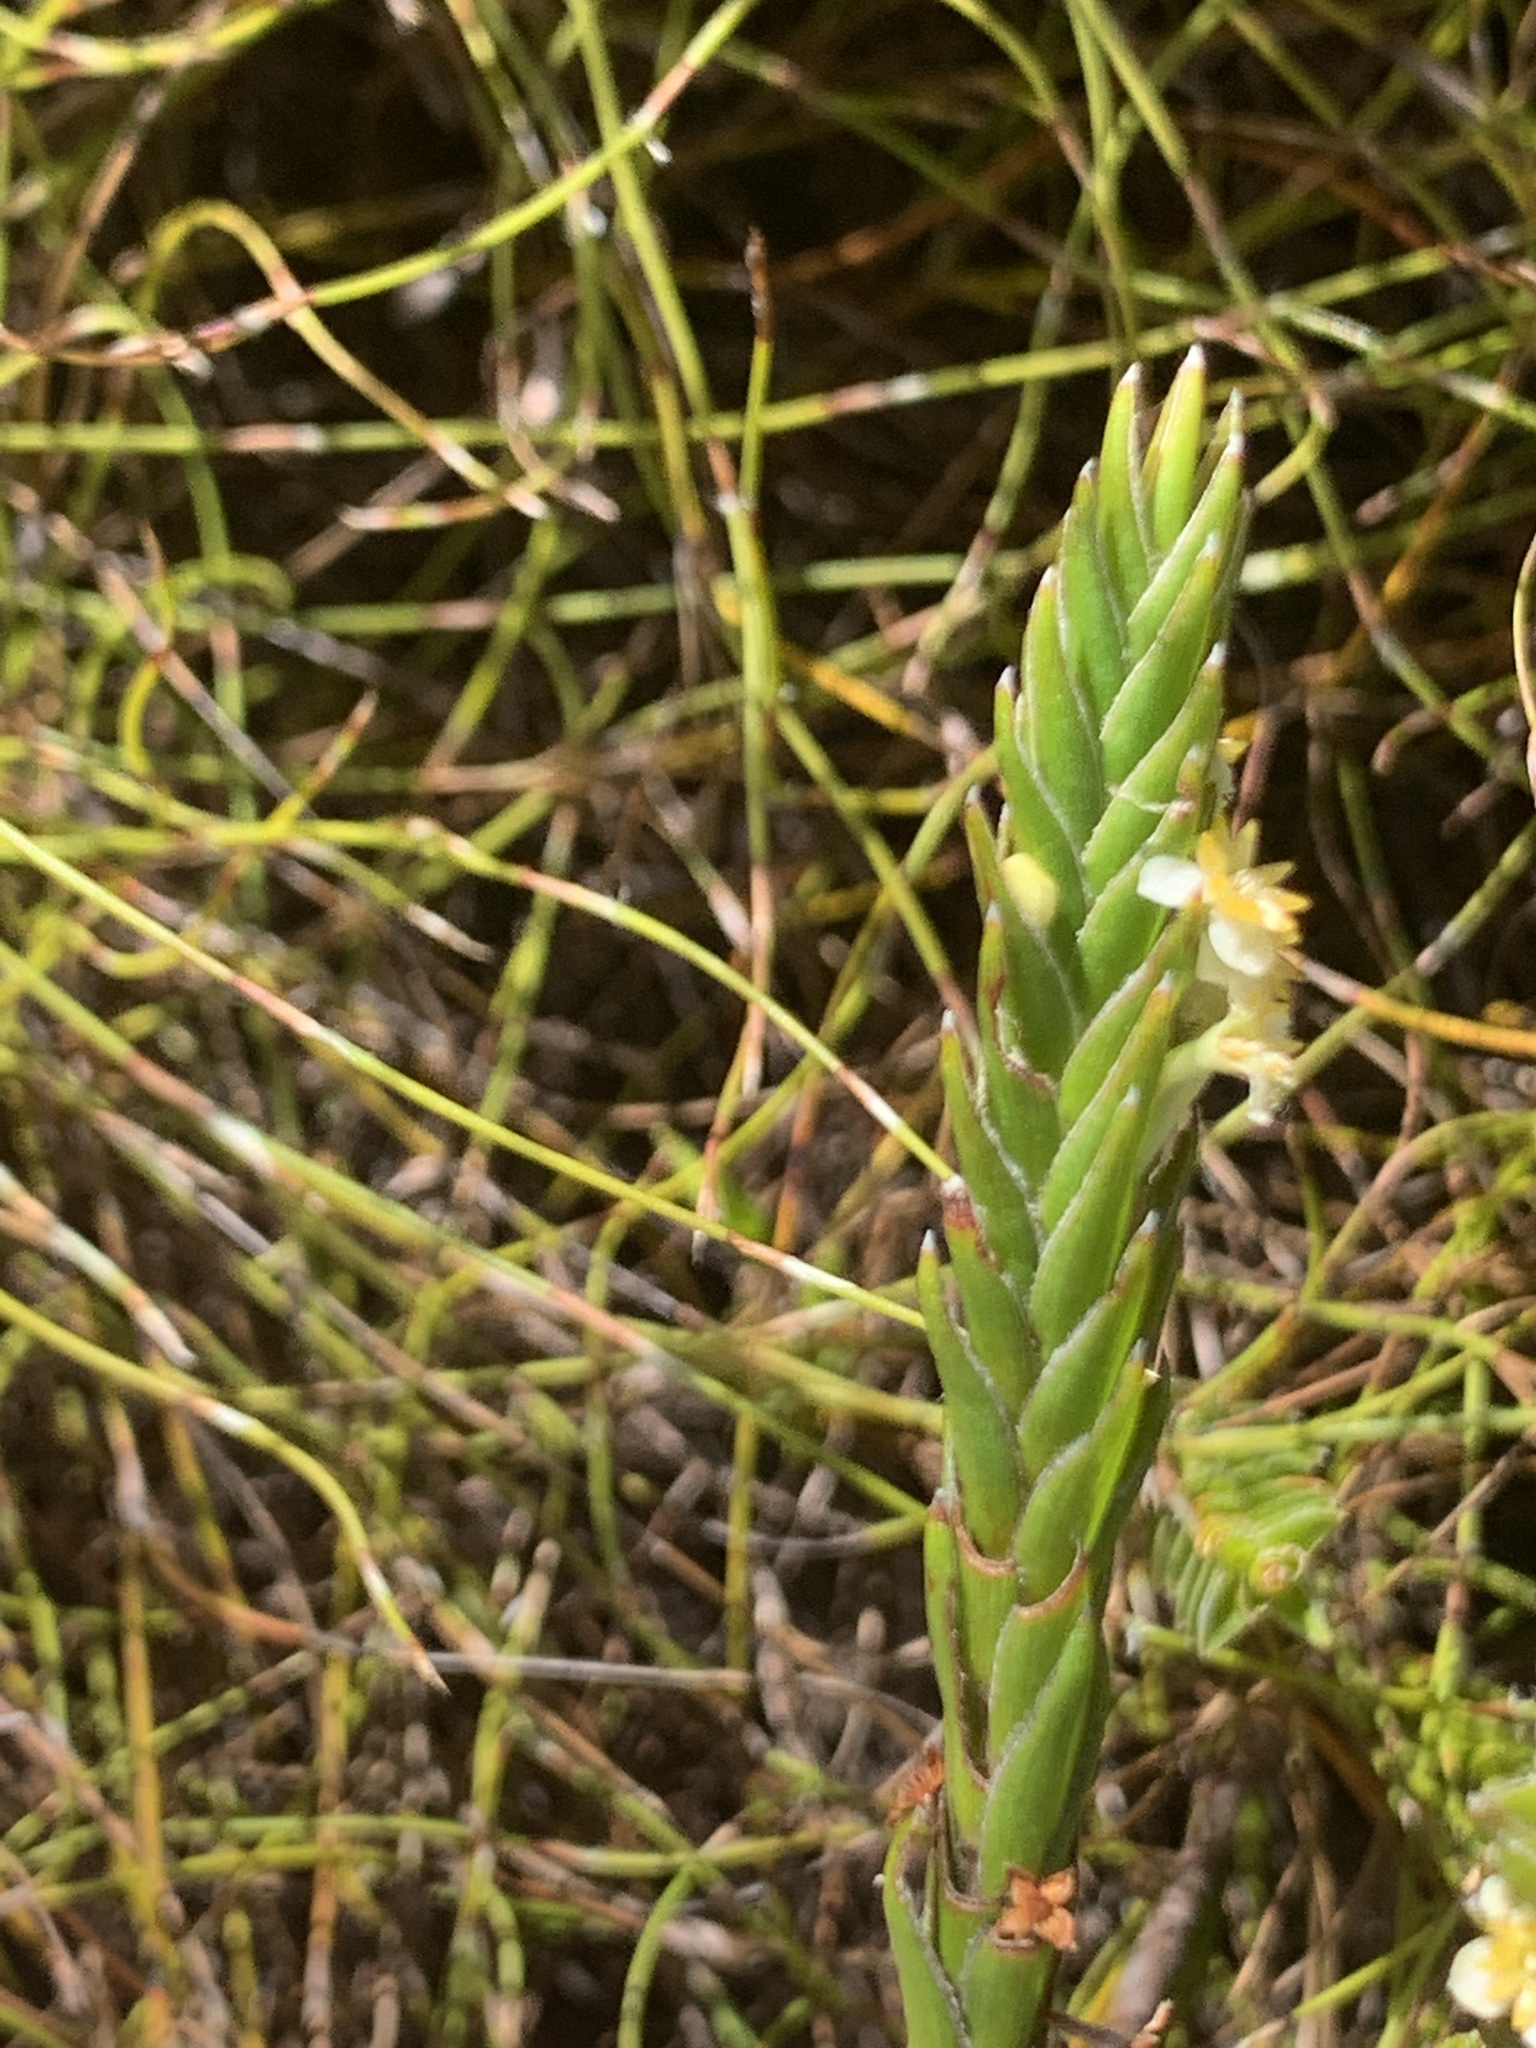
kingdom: Plantae
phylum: Tracheophyta
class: Magnoliopsida
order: Malvales
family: Thymelaeaceae
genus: Struthiola
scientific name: Struthiola ciliata
